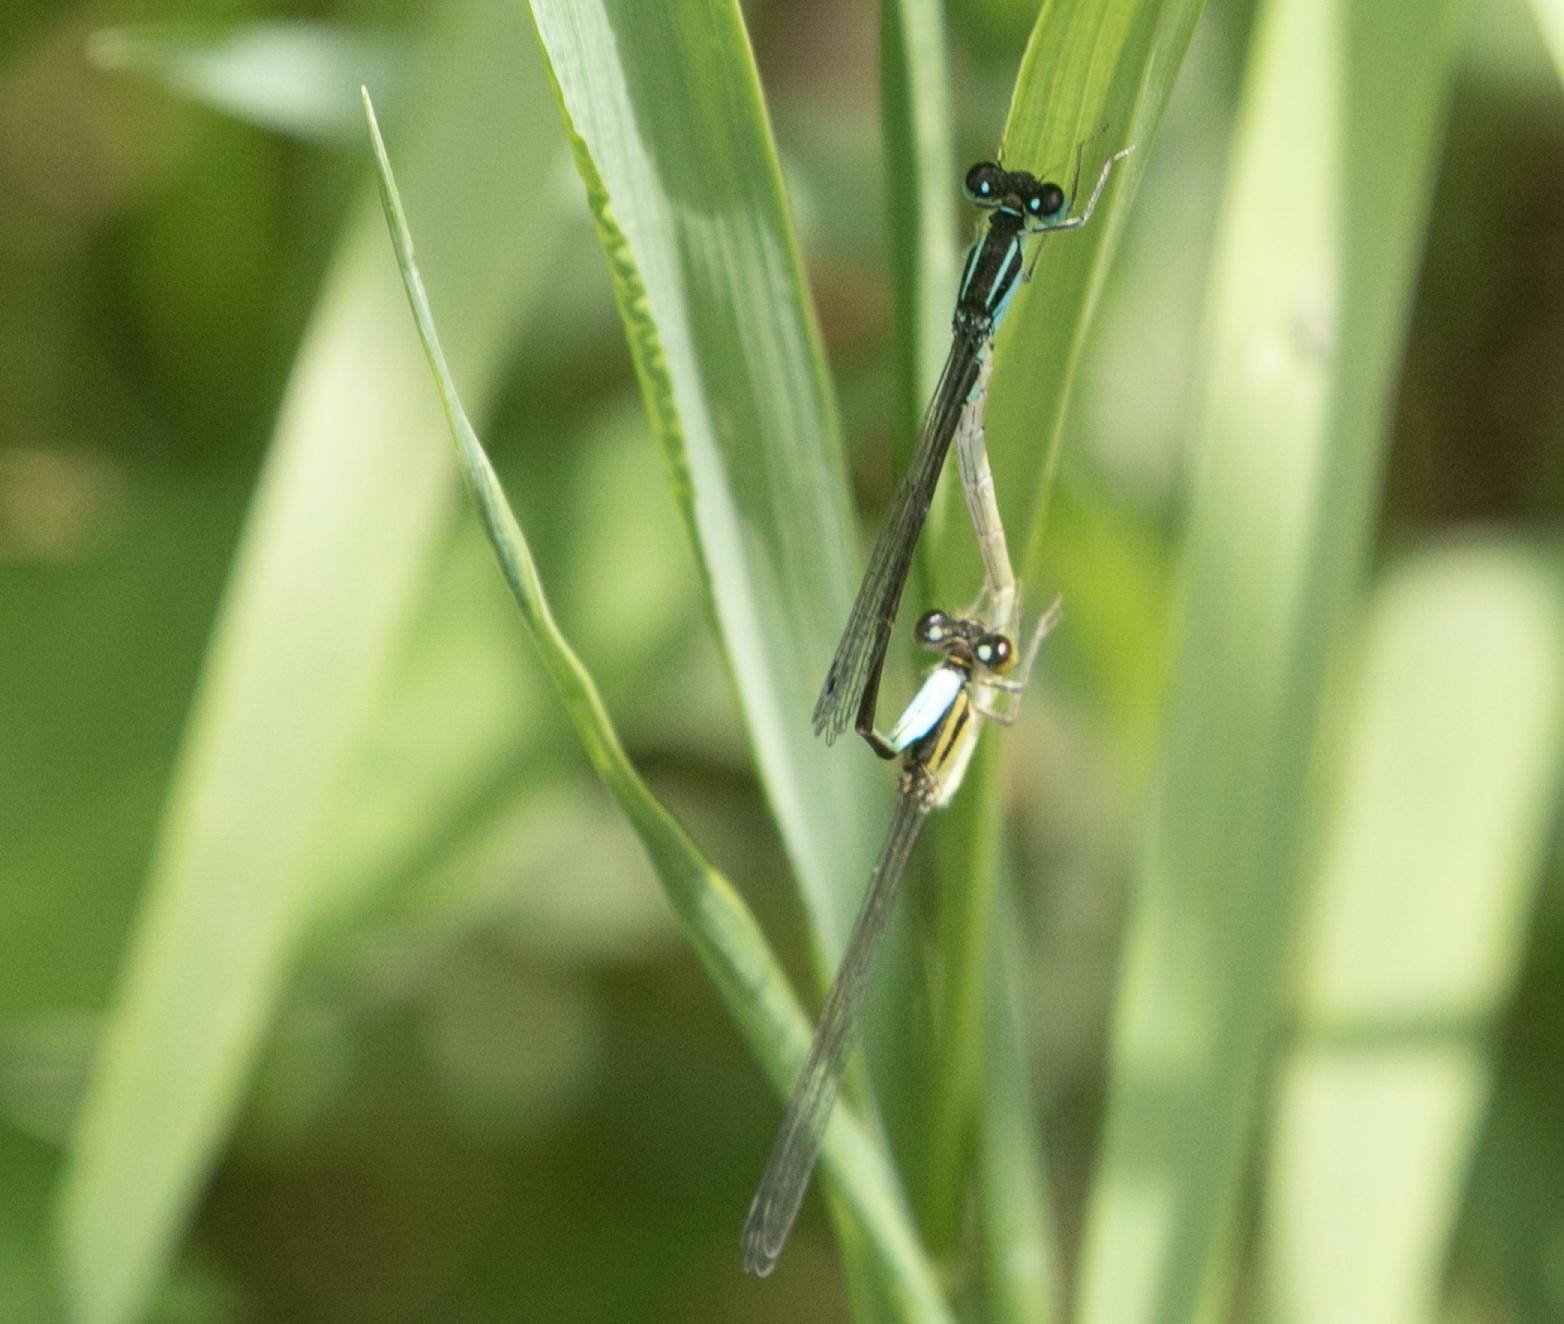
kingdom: Animalia
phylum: Arthropoda
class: Insecta
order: Odonata
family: Coenagrionidae
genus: Ischnura
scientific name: Ischnura elegans
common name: Blue-tailed damselfly
